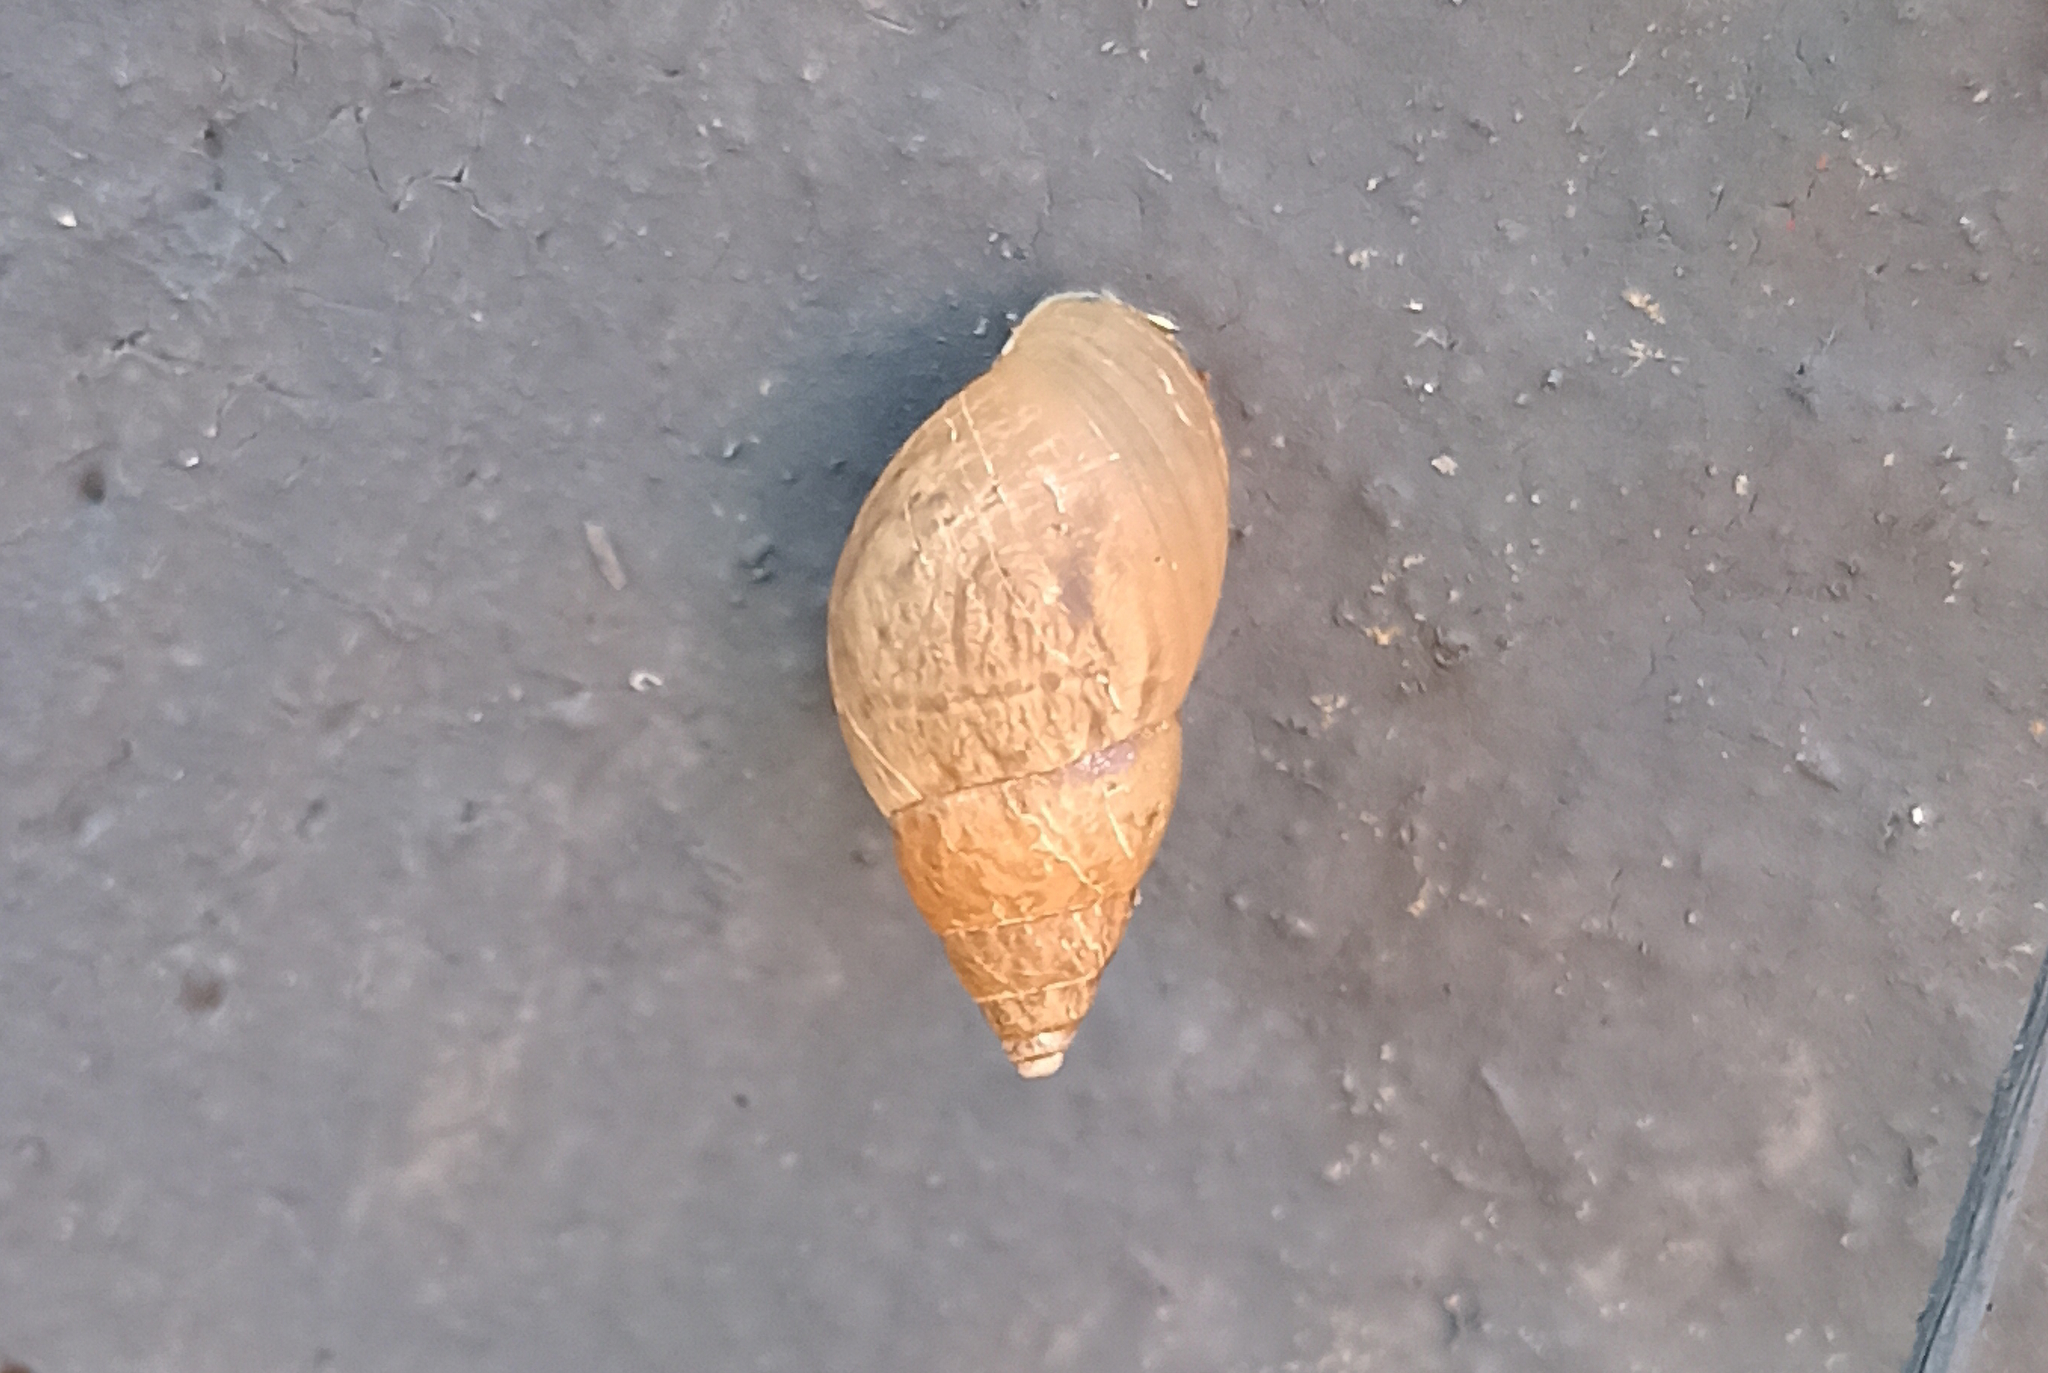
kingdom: Animalia
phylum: Mollusca
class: Gastropoda
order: Stylommatophora
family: Bulimulidae
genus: Bulimulus
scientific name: Bulimulus tenuissimus
